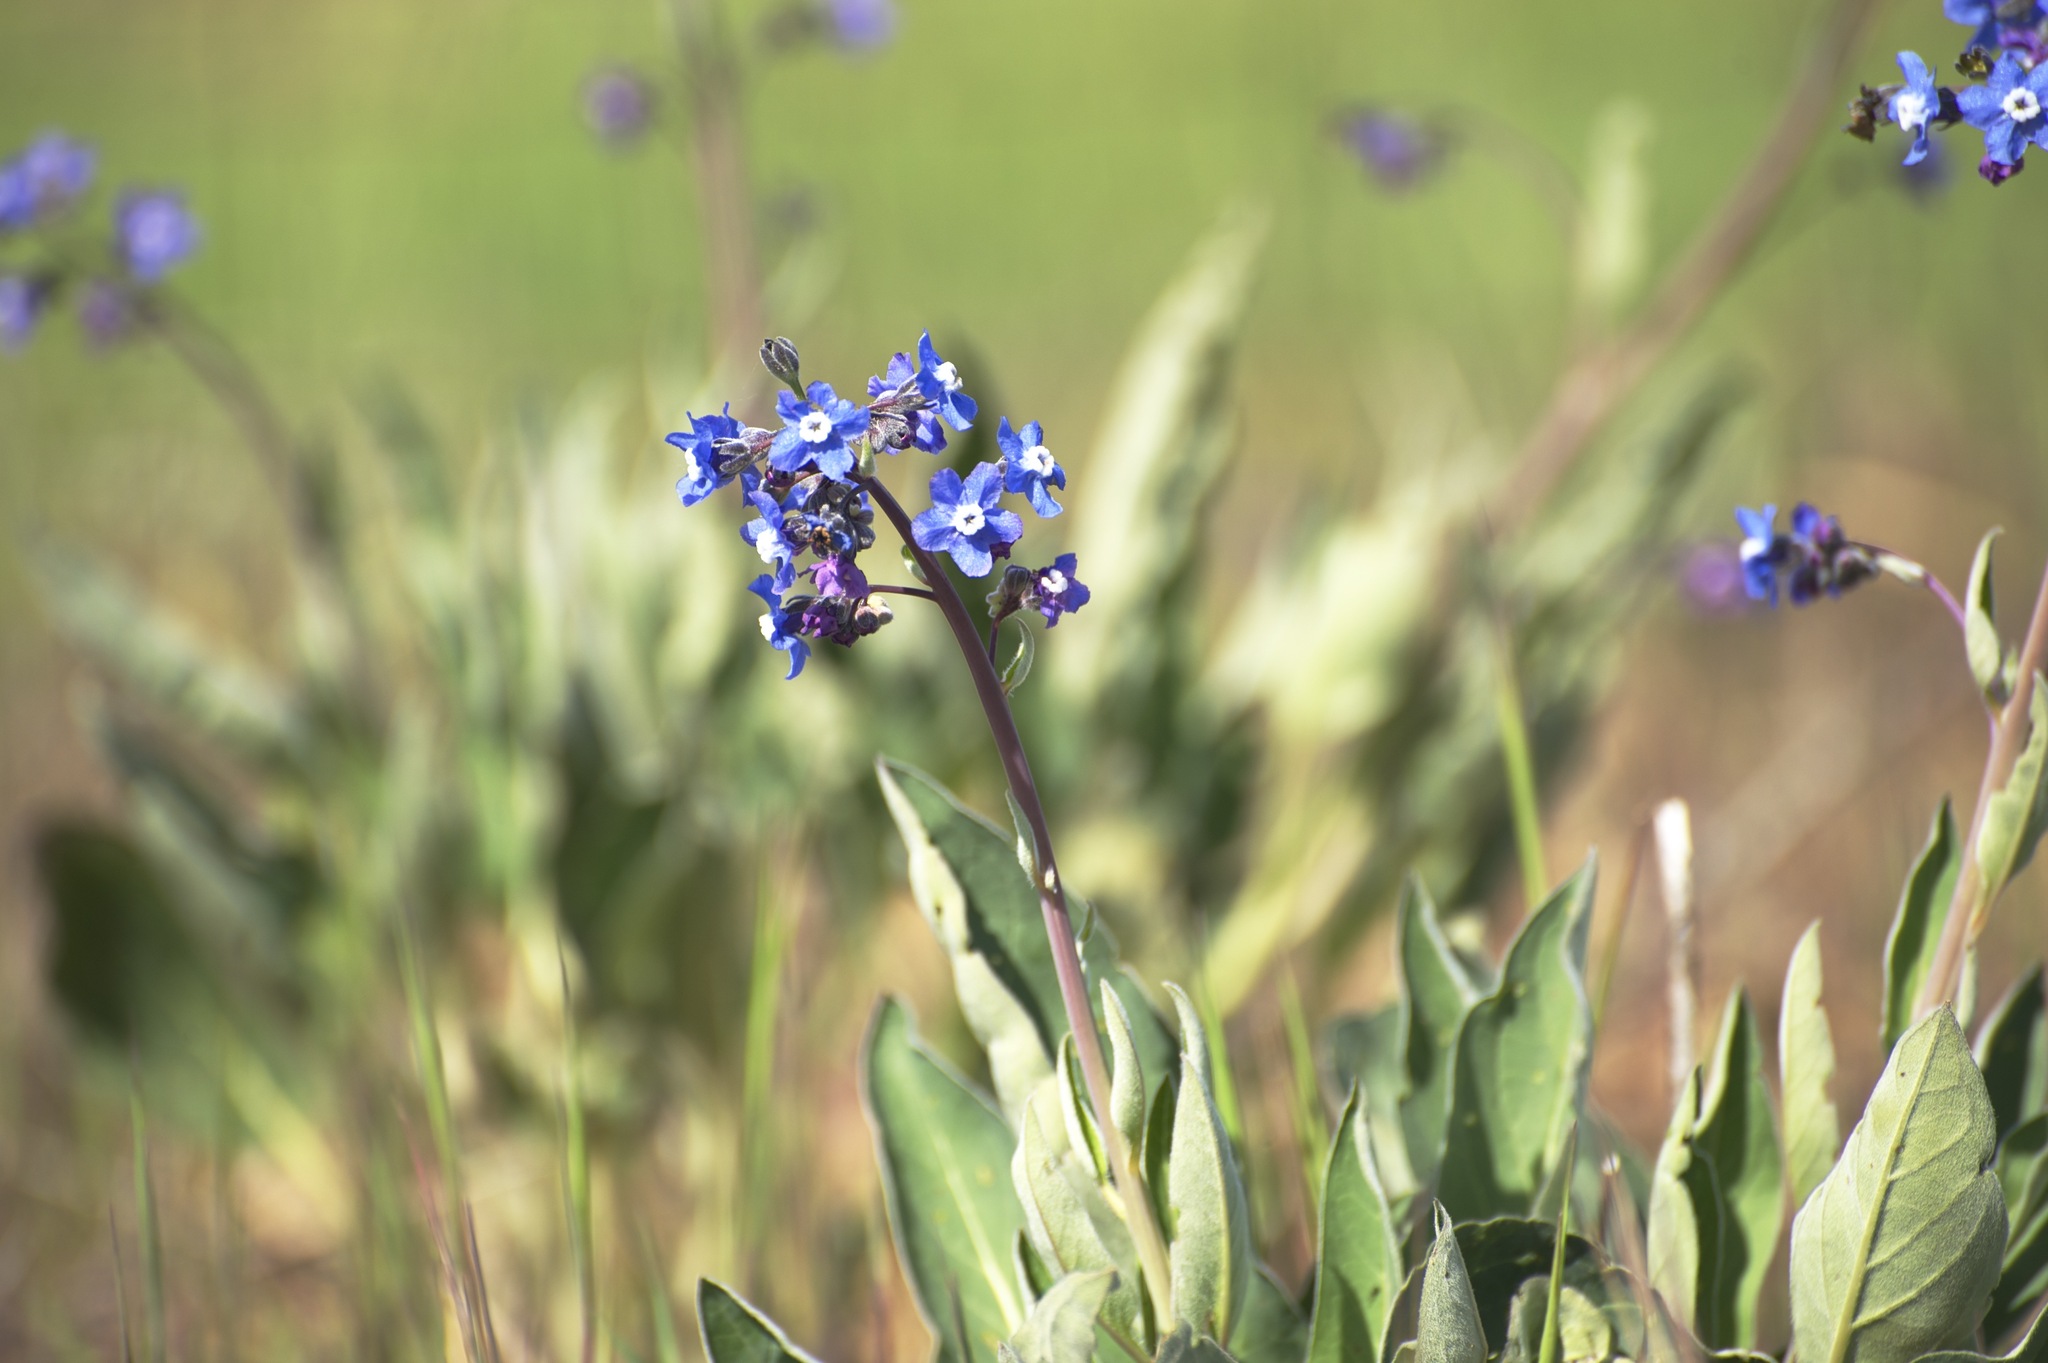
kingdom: Plantae
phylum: Tracheophyta
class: Magnoliopsida
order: Boraginales
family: Boraginaceae
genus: Adelinia
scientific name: Adelinia grande
